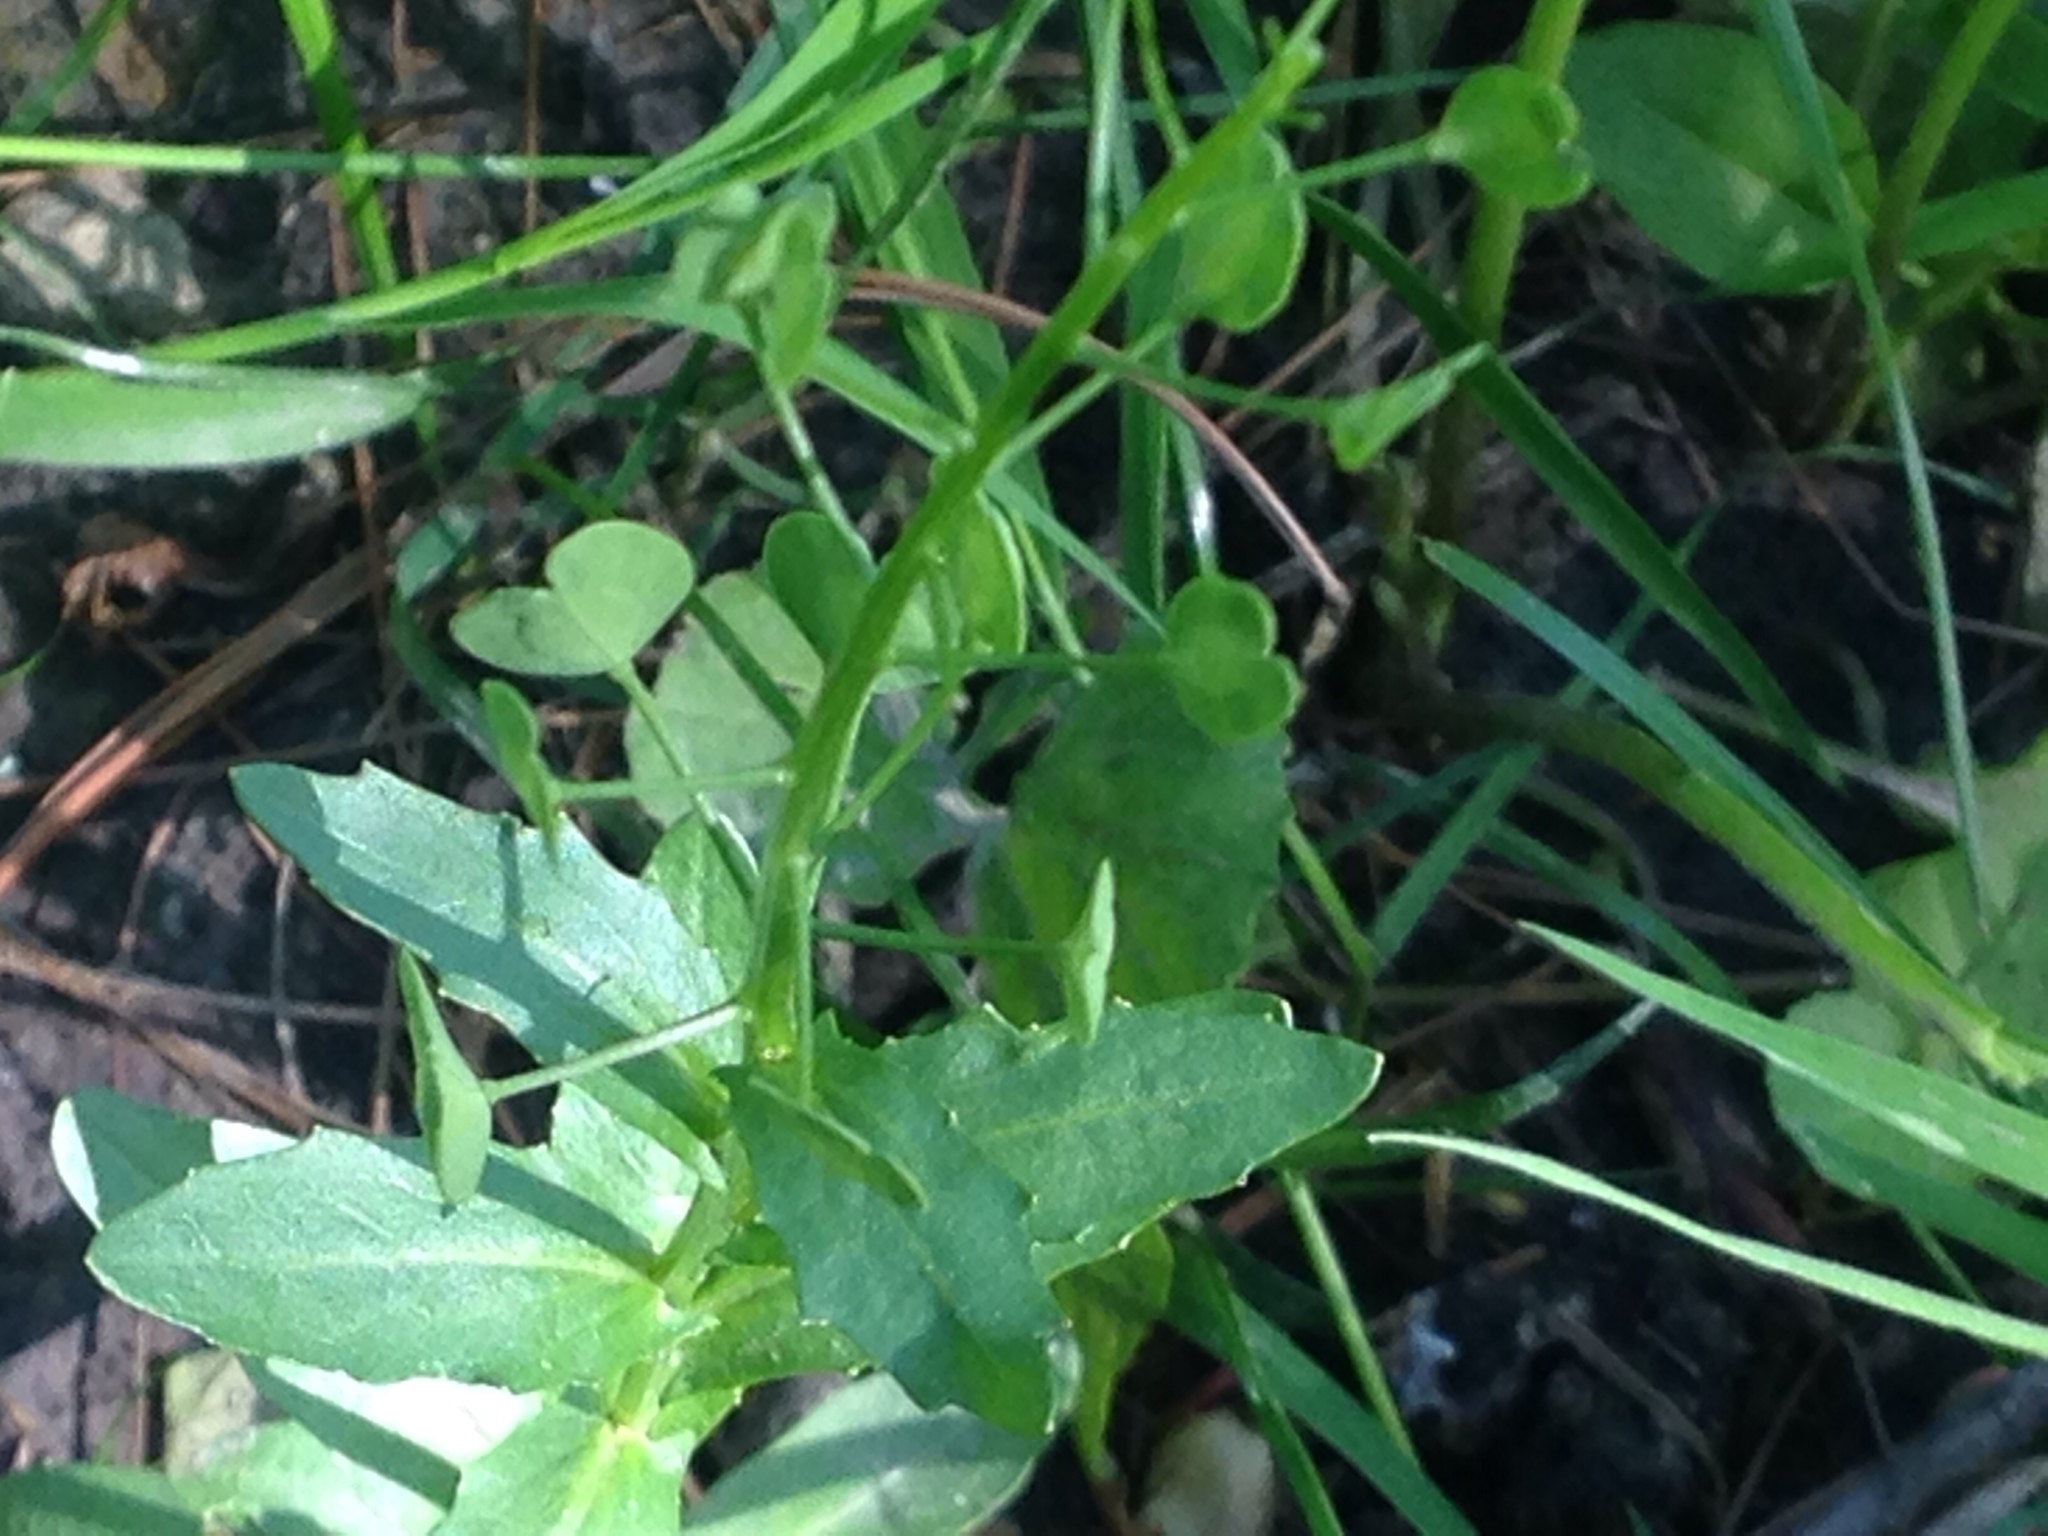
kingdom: Plantae
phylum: Tracheophyta
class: Magnoliopsida
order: Brassicales
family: Brassicaceae
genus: Thlaspi
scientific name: Thlaspi arvense
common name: Field pennycress
